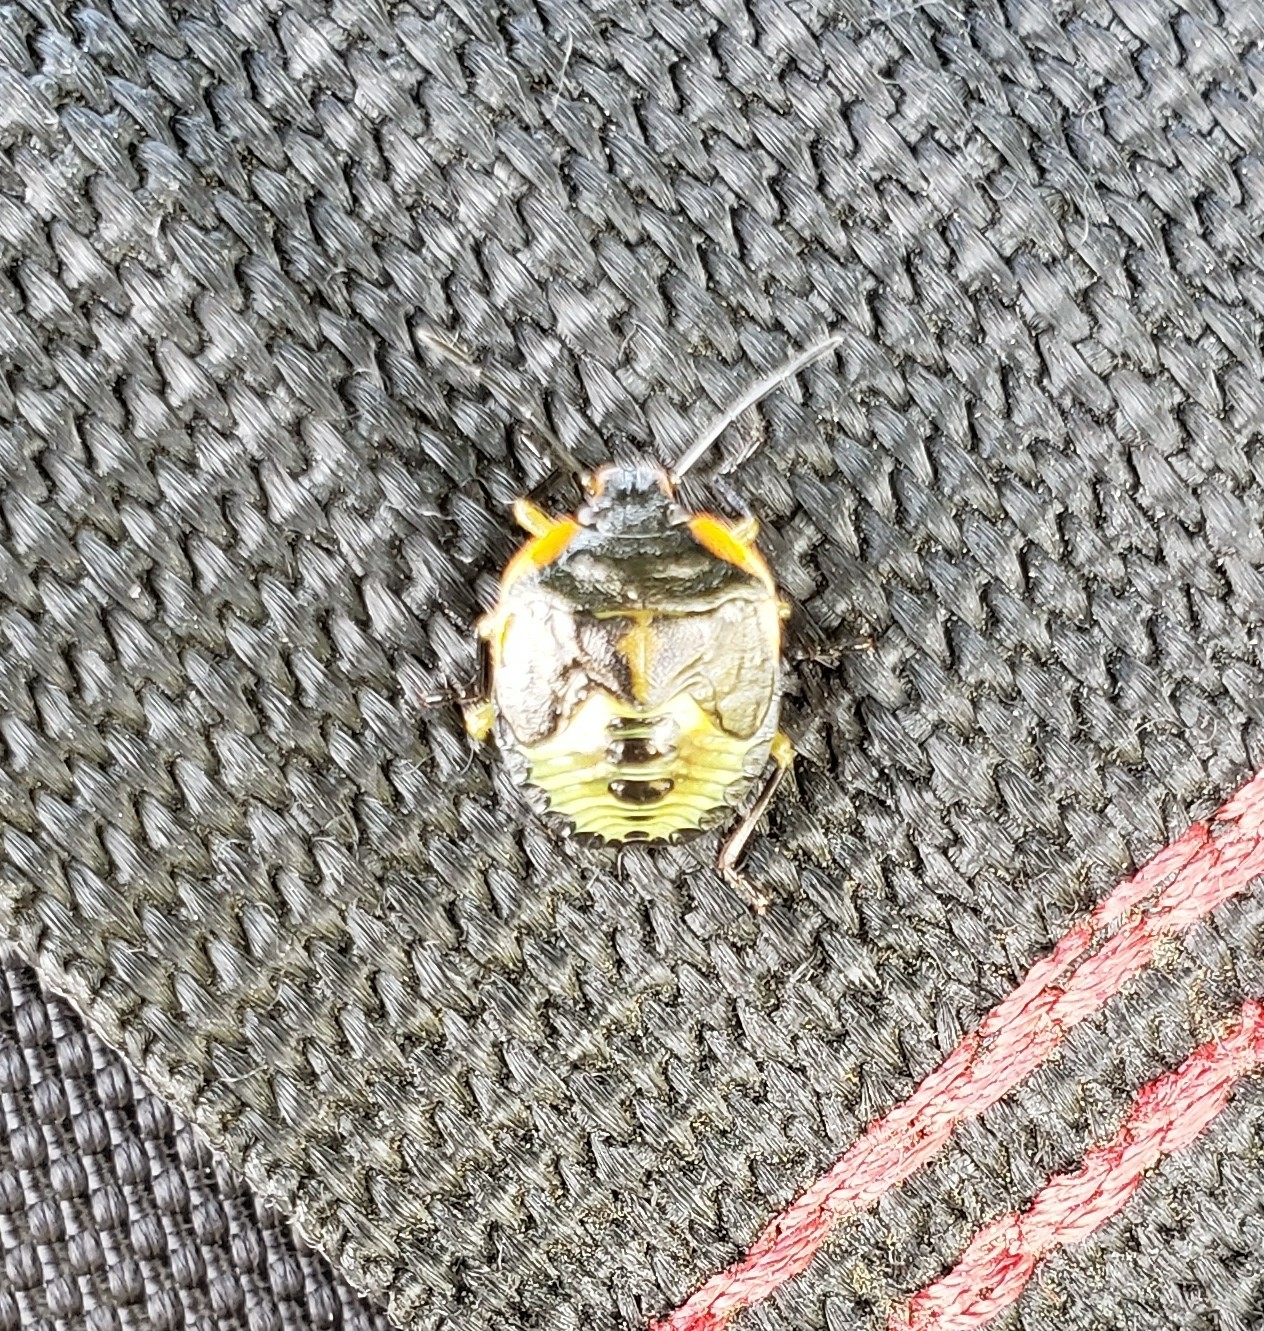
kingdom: Animalia
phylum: Arthropoda
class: Insecta
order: Hemiptera
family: Pentatomidae
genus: Chinavia
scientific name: Chinavia hilaris
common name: Green stink bug
